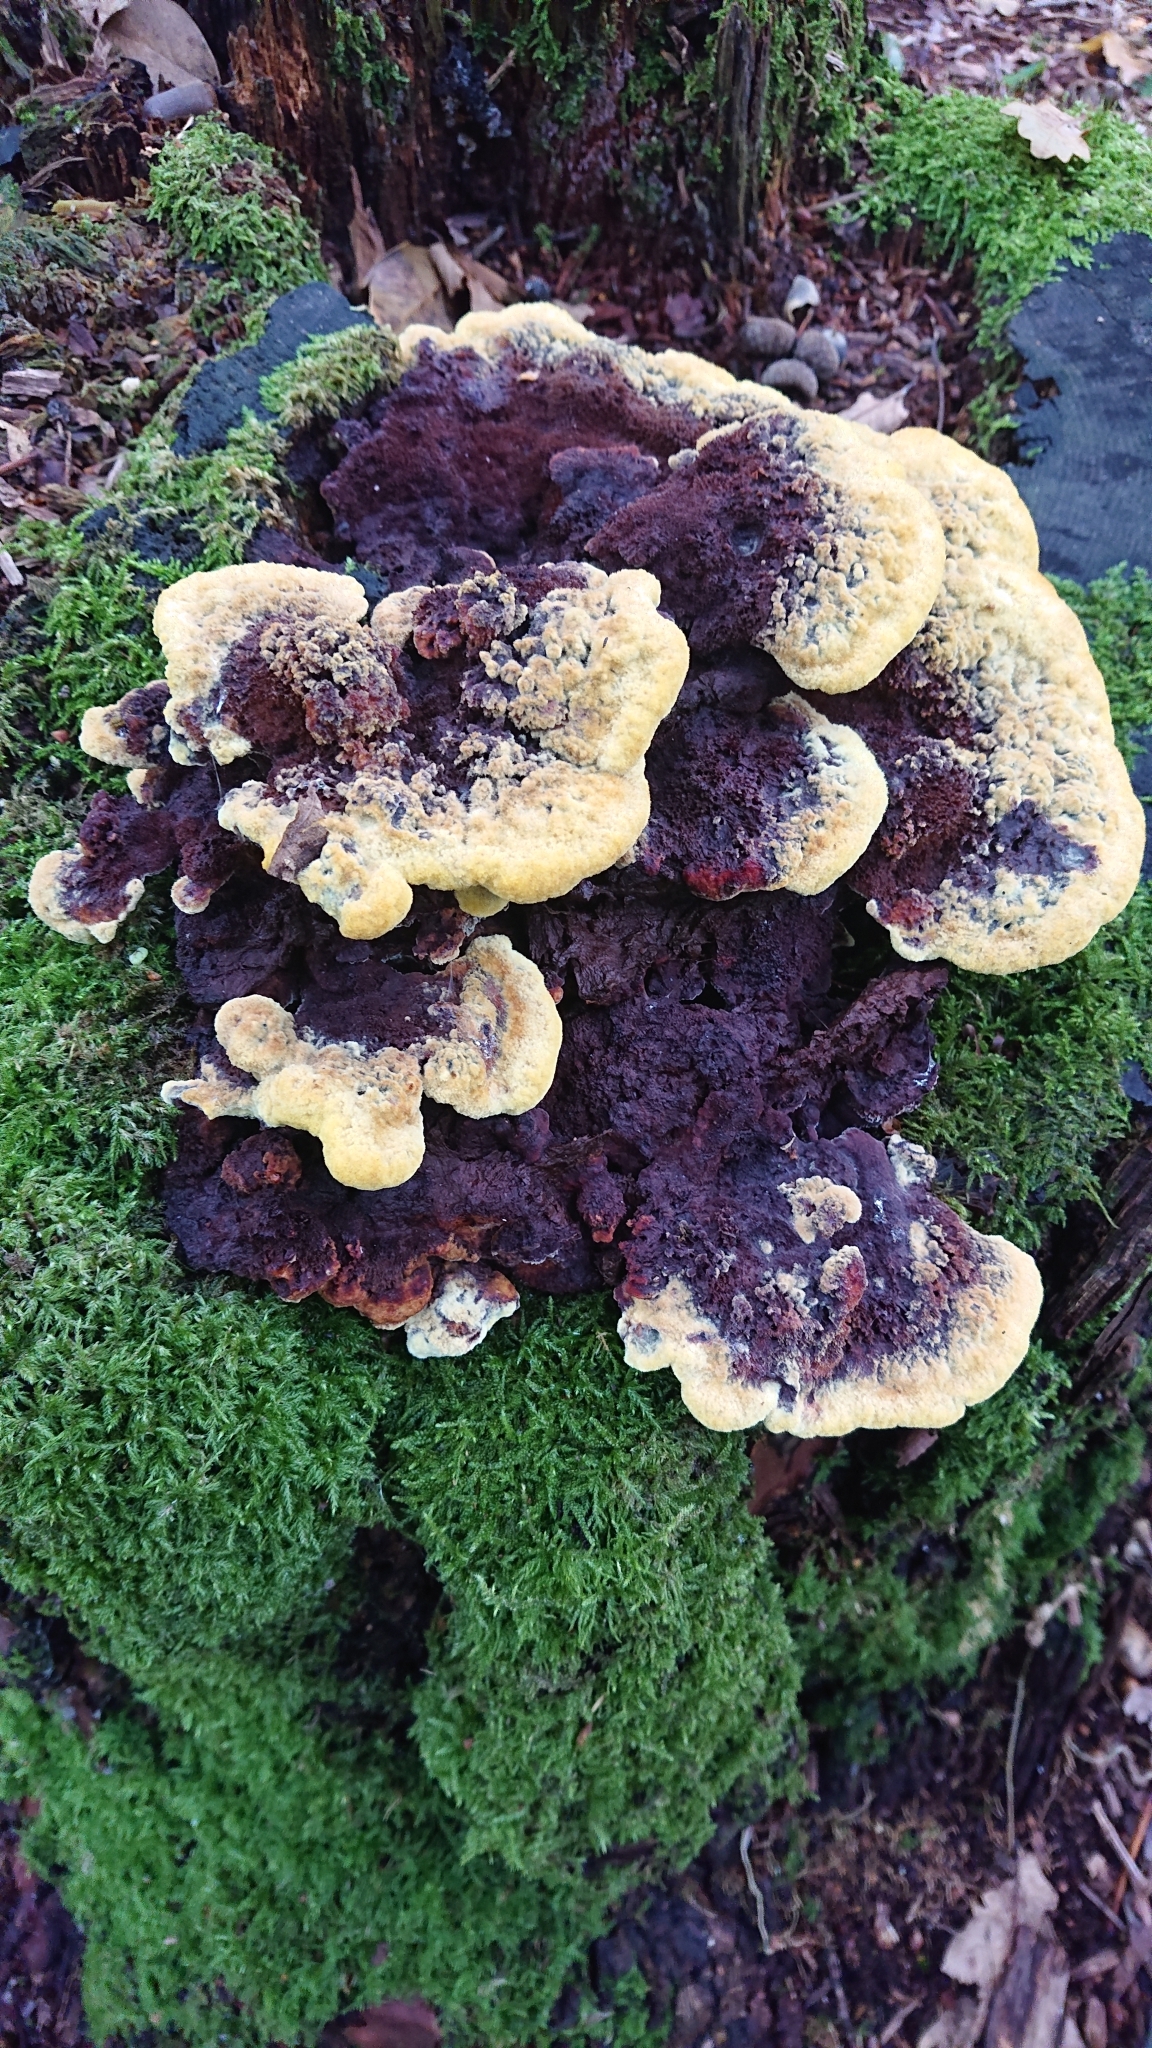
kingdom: Fungi
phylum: Basidiomycota
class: Agaricomycetes
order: Polyporales
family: Laetiporaceae
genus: Phaeolus
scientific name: Phaeolus schweinitzii
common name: Dyer's mazegill
